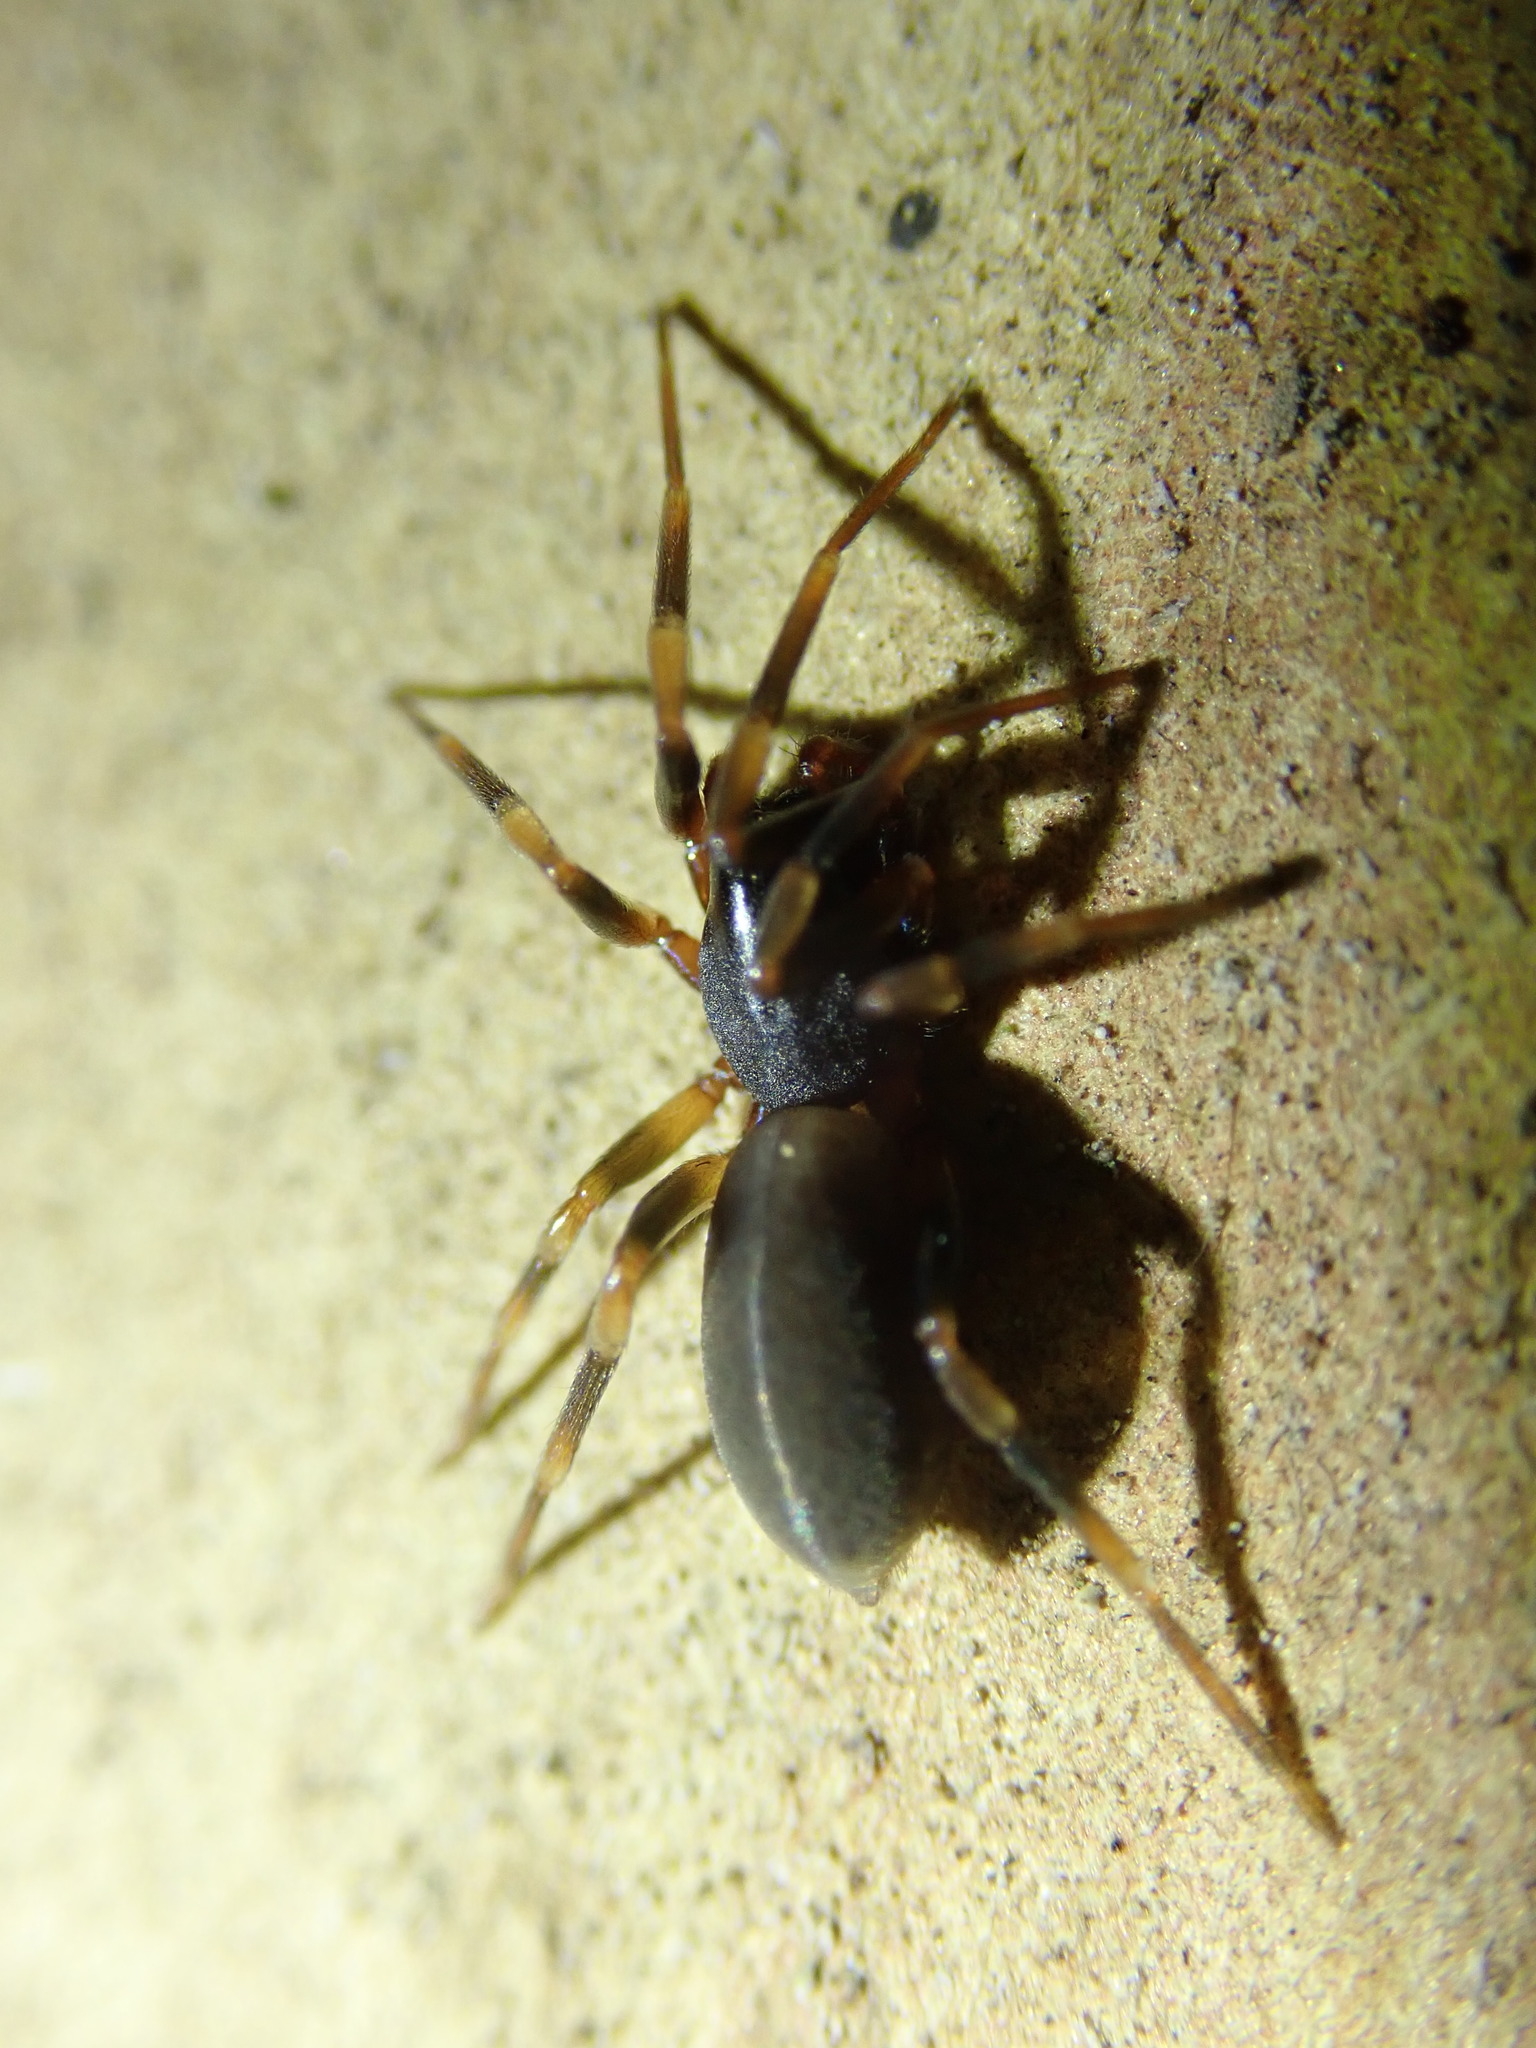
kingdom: Animalia
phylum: Arthropoda
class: Arachnida
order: Araneae
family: Dysderidae
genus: Harpactea
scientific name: Harpactea hombergi
